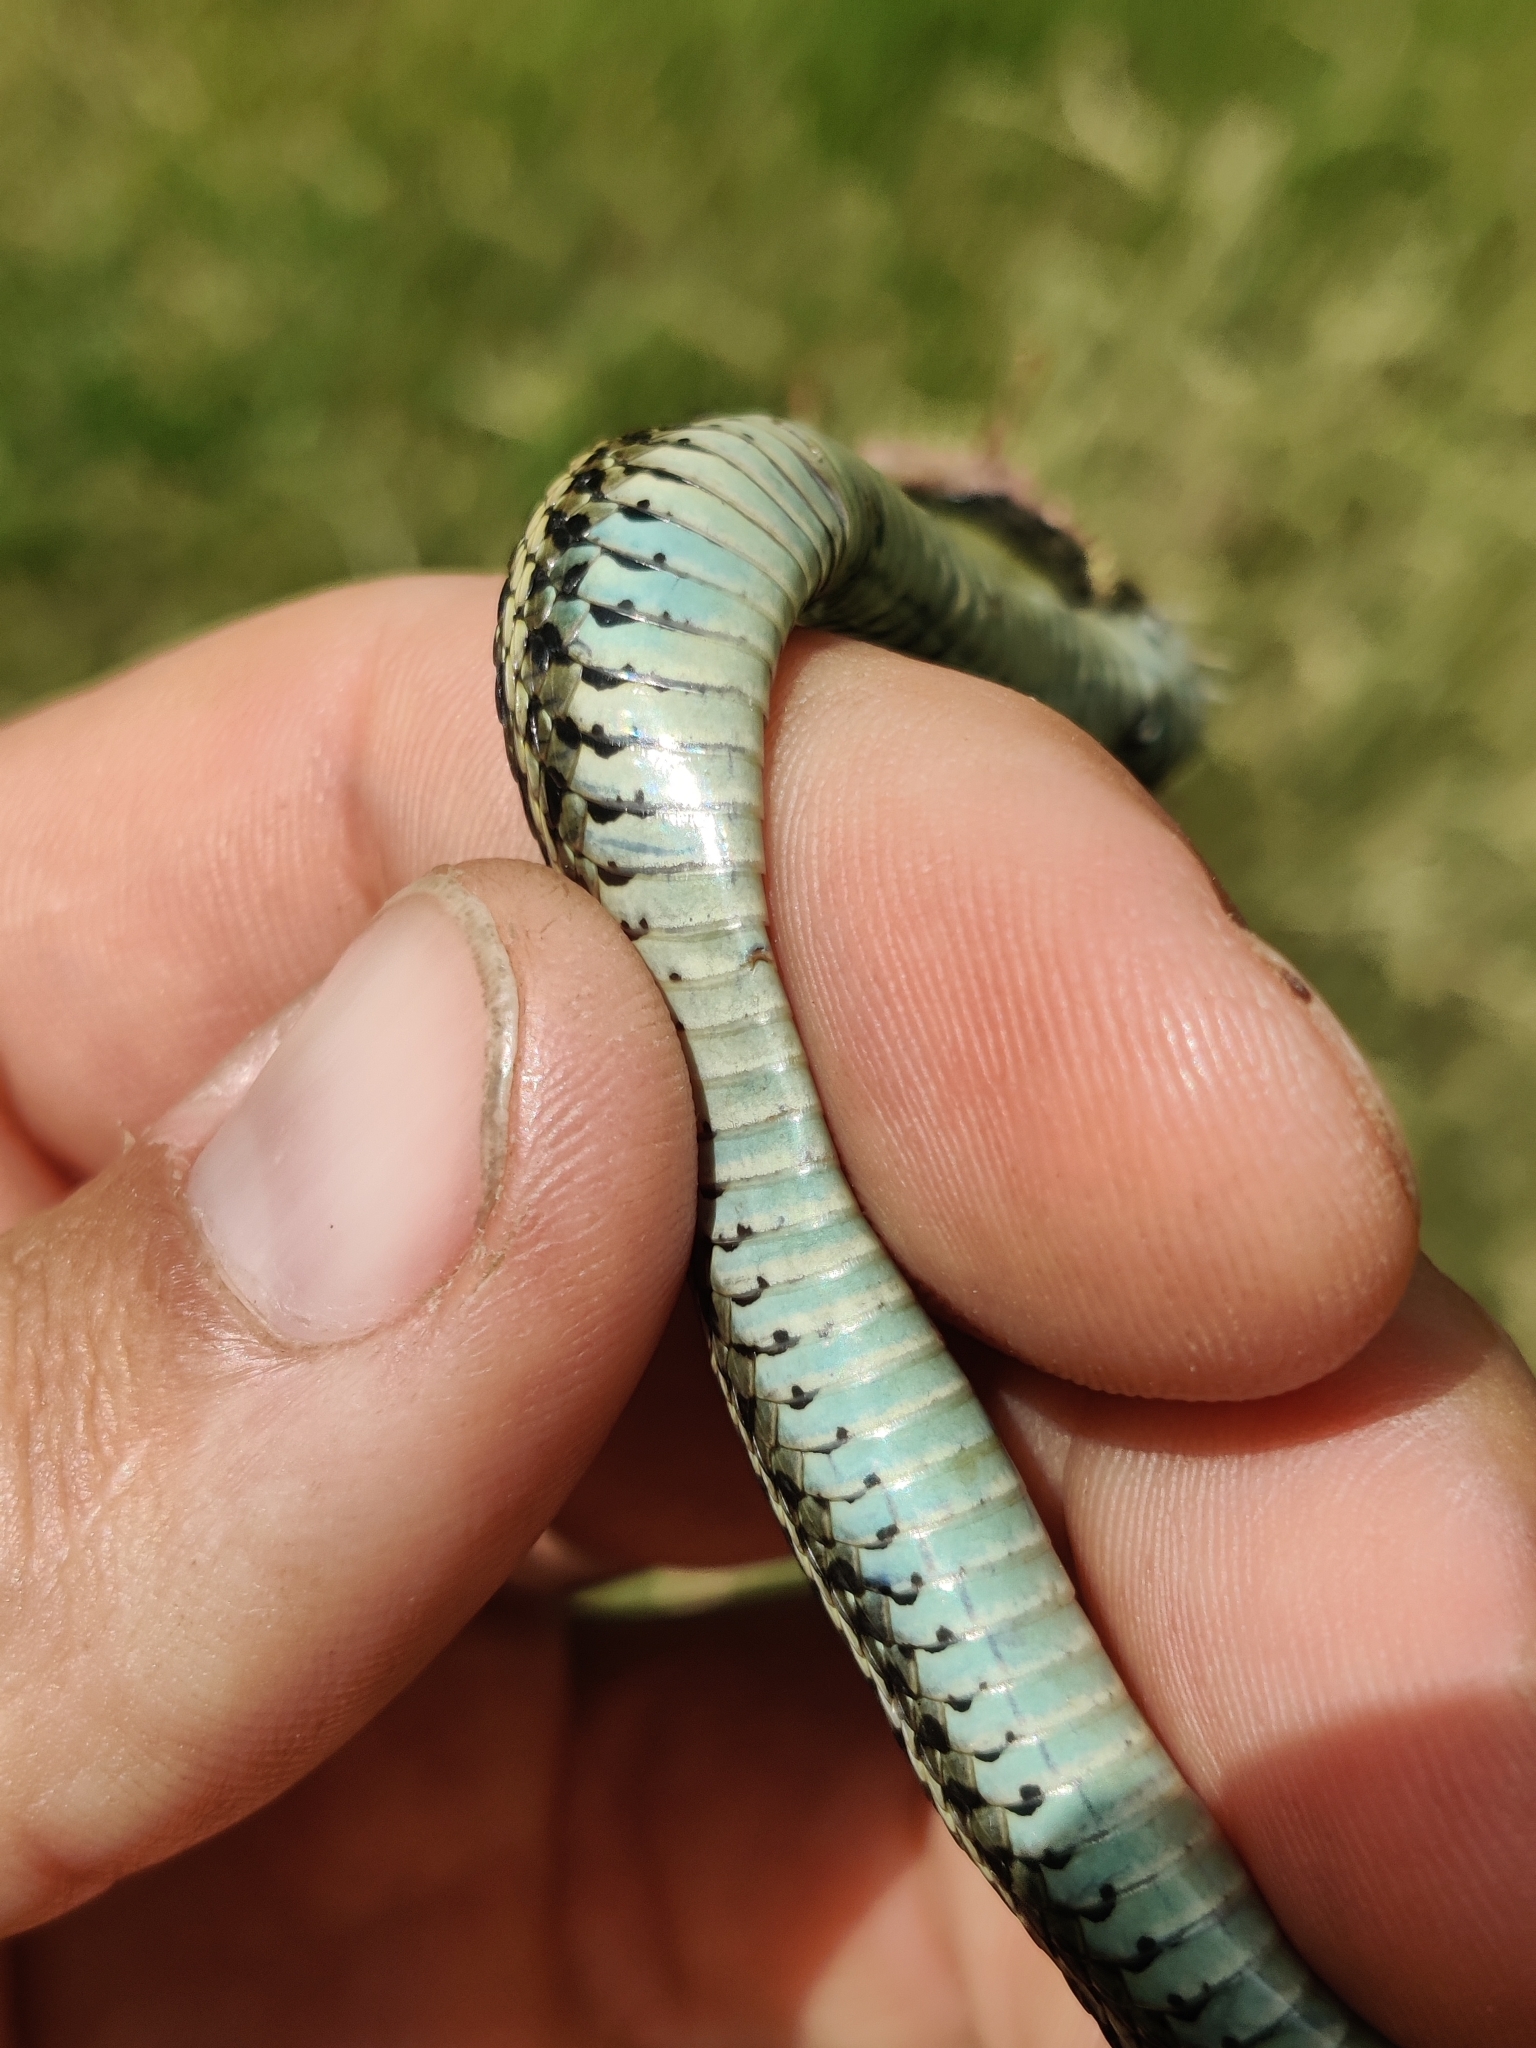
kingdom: Animalia
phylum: Chordata
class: Squamata
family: Colubridae
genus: Thamnophis
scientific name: Thamnophis radix
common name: Plains garter snake
